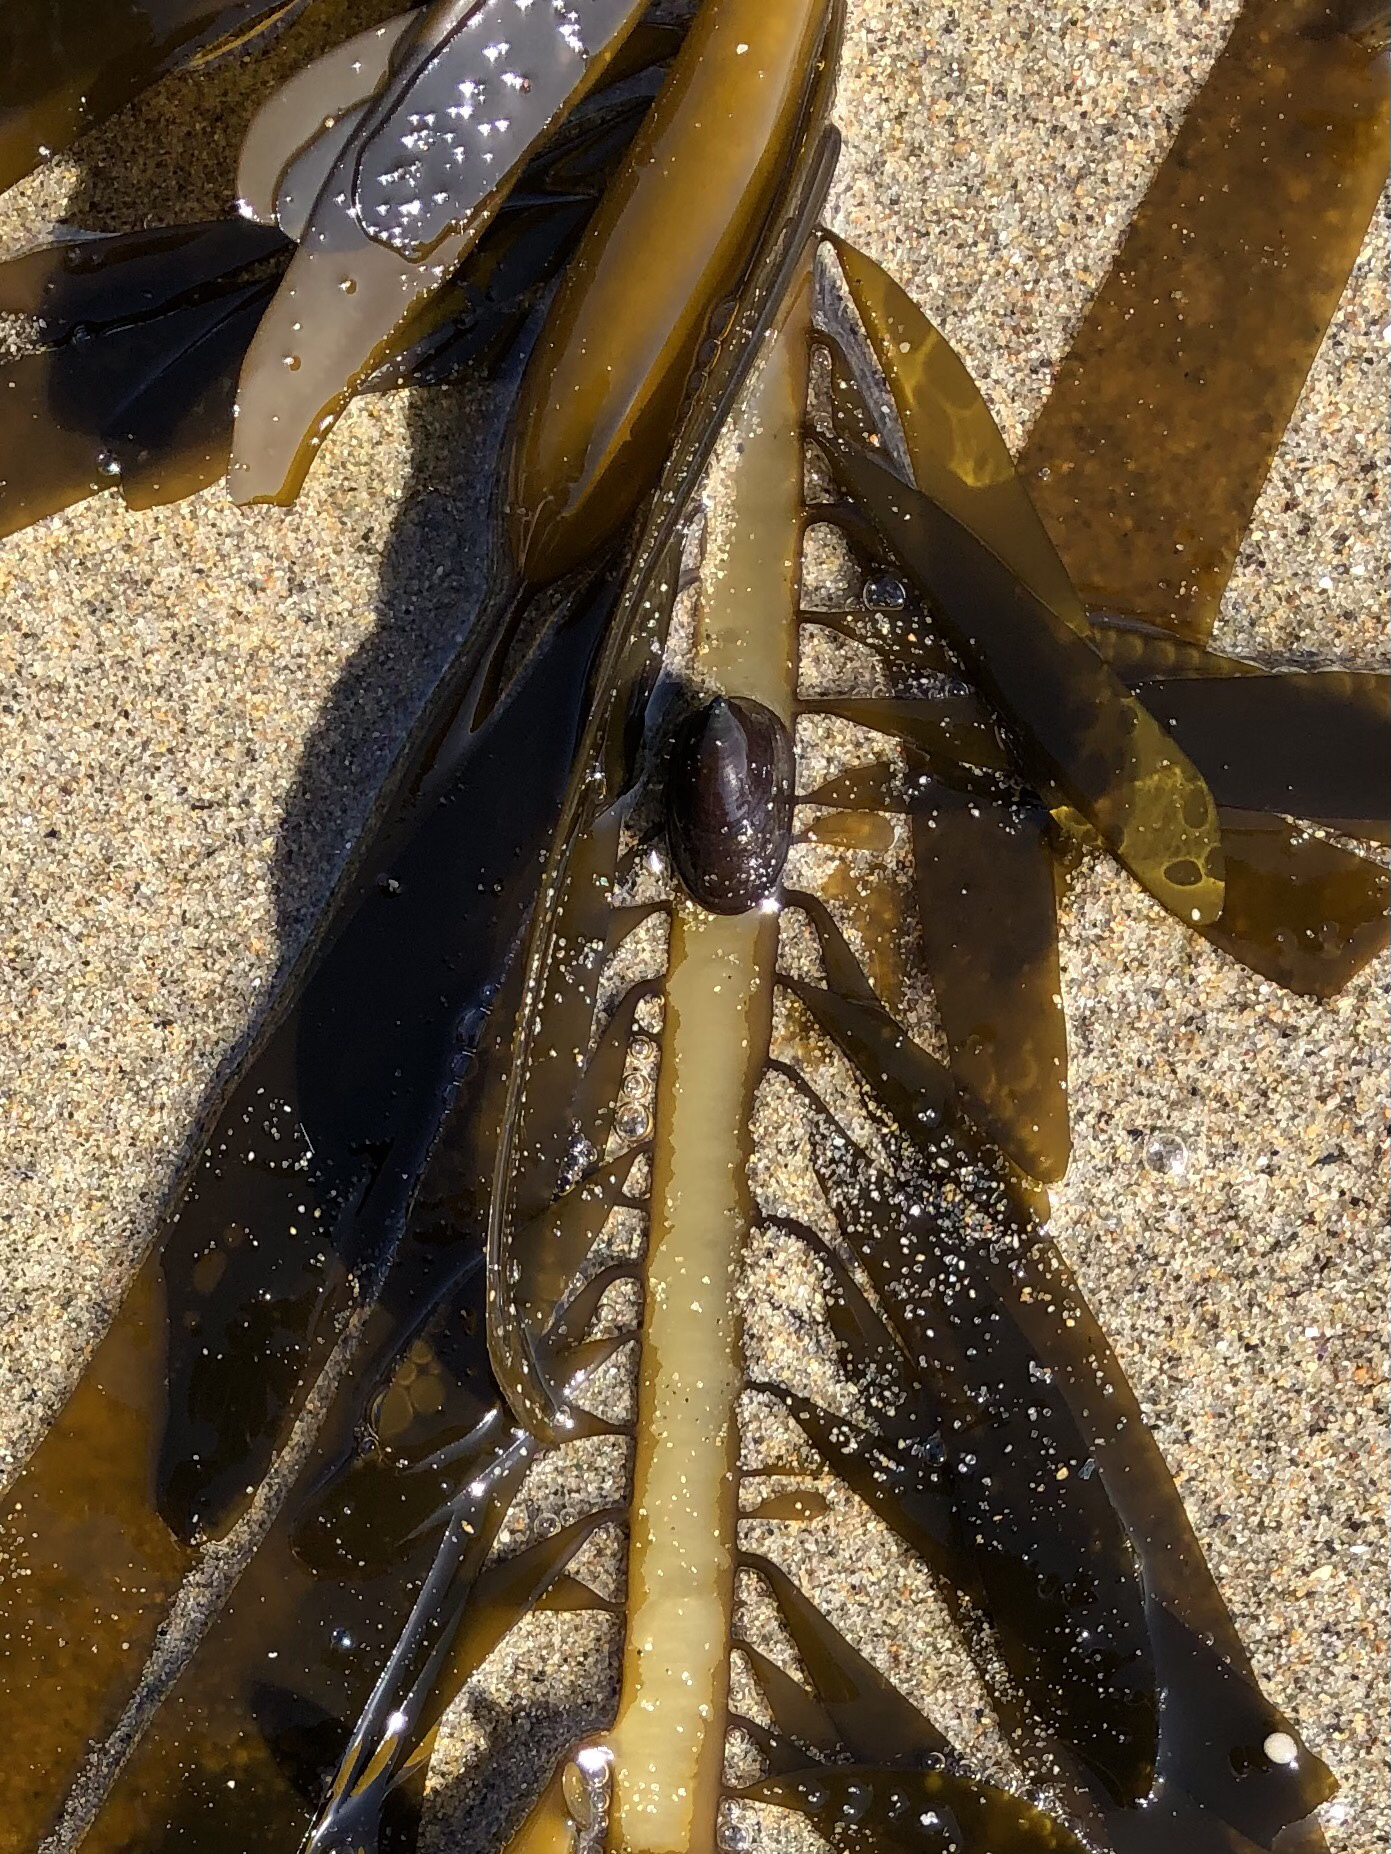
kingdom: Animalia
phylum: Mollusca
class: Gastropoda
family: Lottiidae
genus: Discurria
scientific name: Discurria insessa
